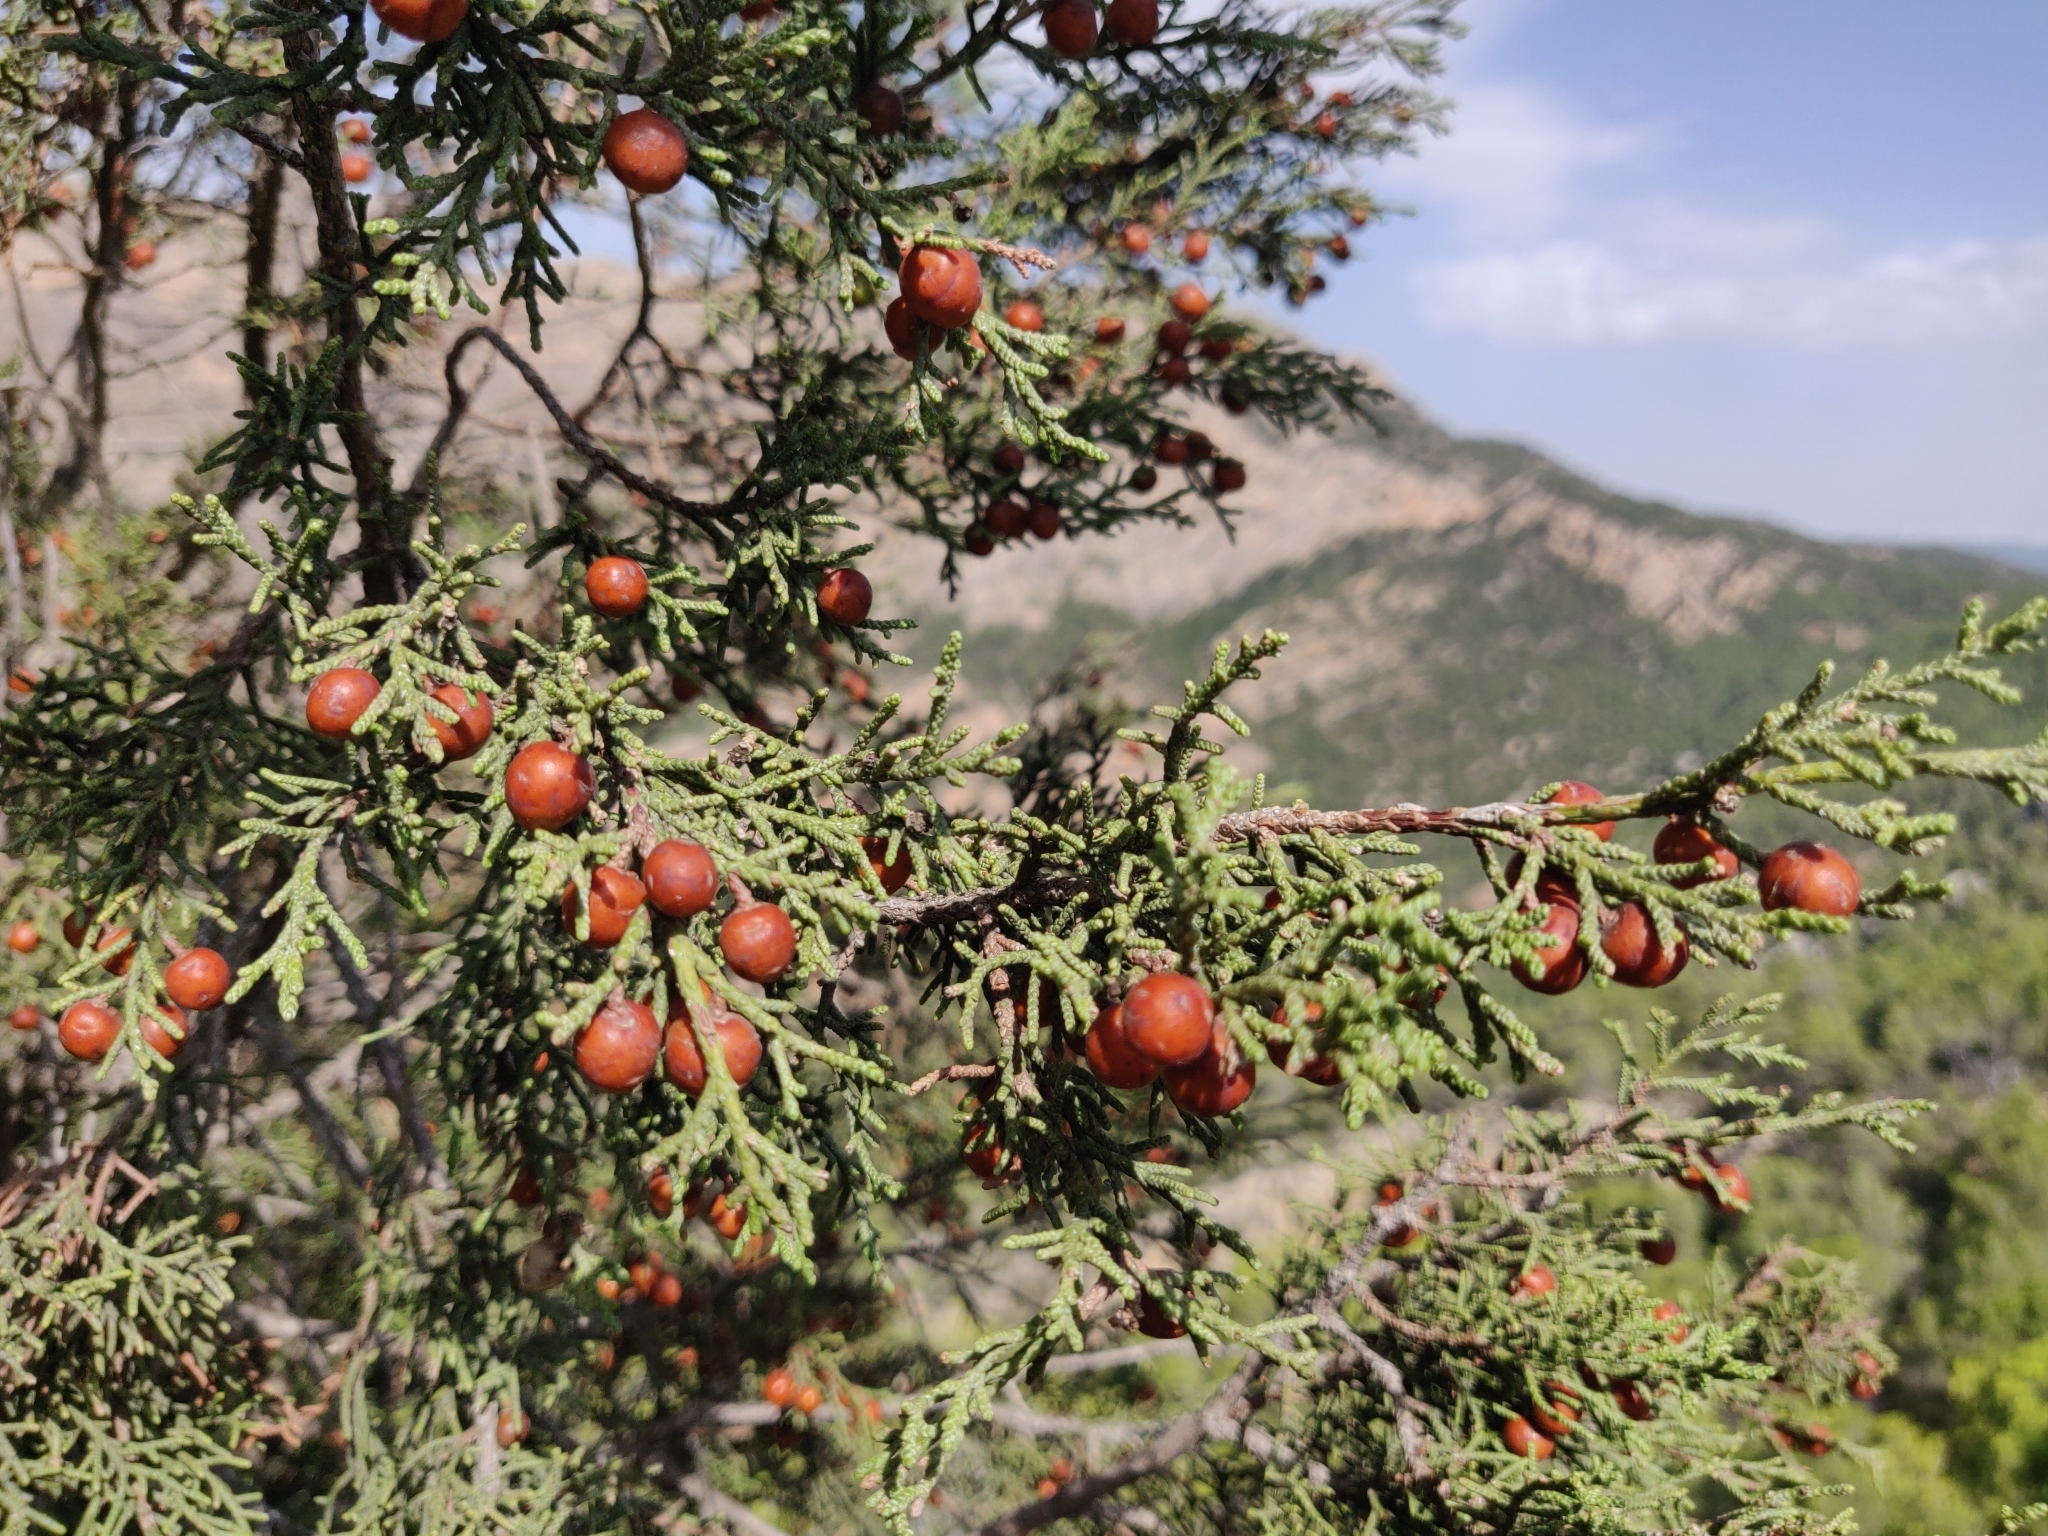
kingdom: Plantae
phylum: Tracheophyta
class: Pinopsida
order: Pinales
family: Cupressaceae
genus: Juniperus
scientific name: Juniperus phoenicea
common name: Phoenician juniper
